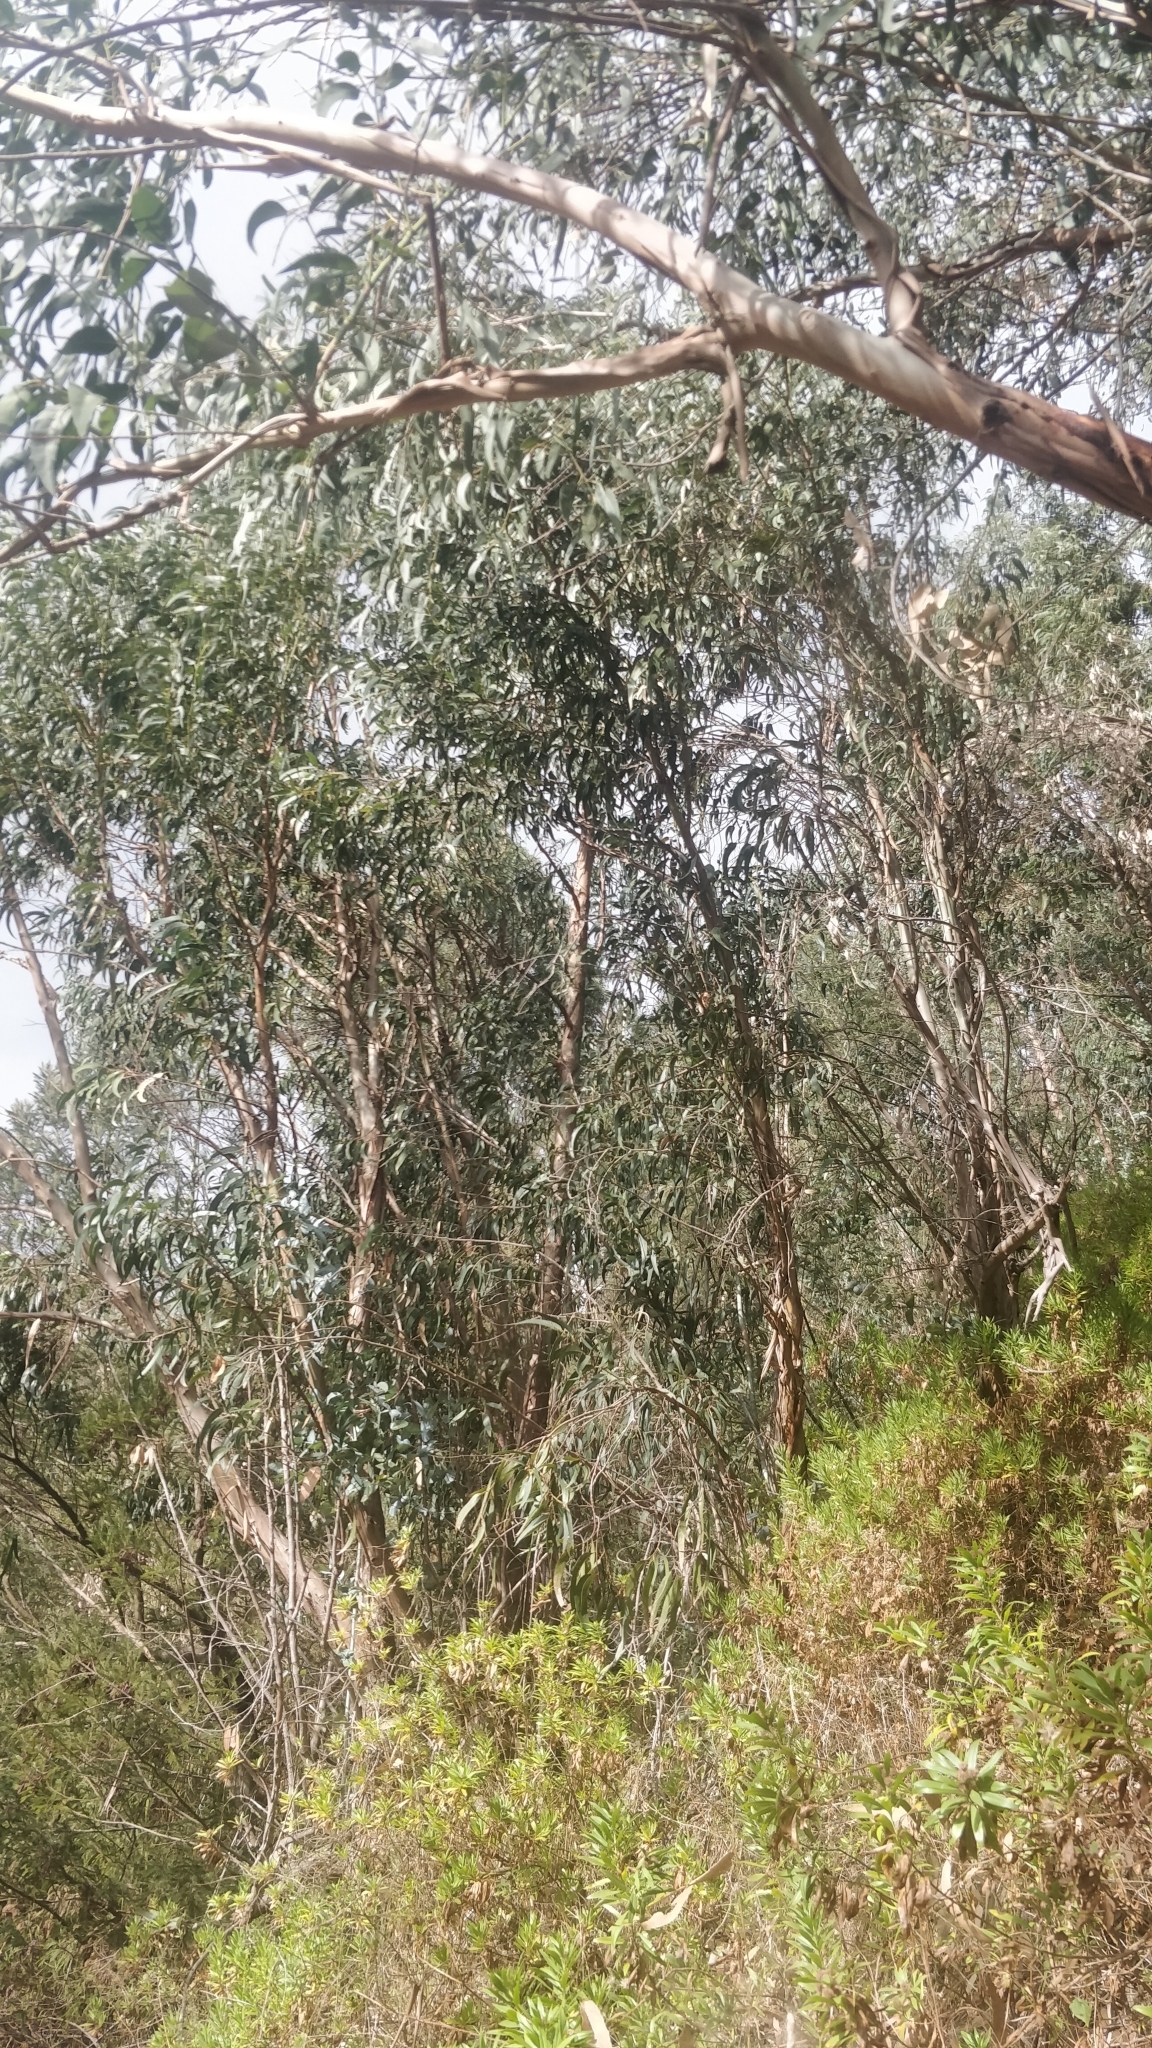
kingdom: Plantae
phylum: Tracheophyta
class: Magnoliopsida
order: Myrtales
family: Myrtaceae
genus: Eucalyptus
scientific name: Eucalyptus globulus
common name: Southern blue-gum
